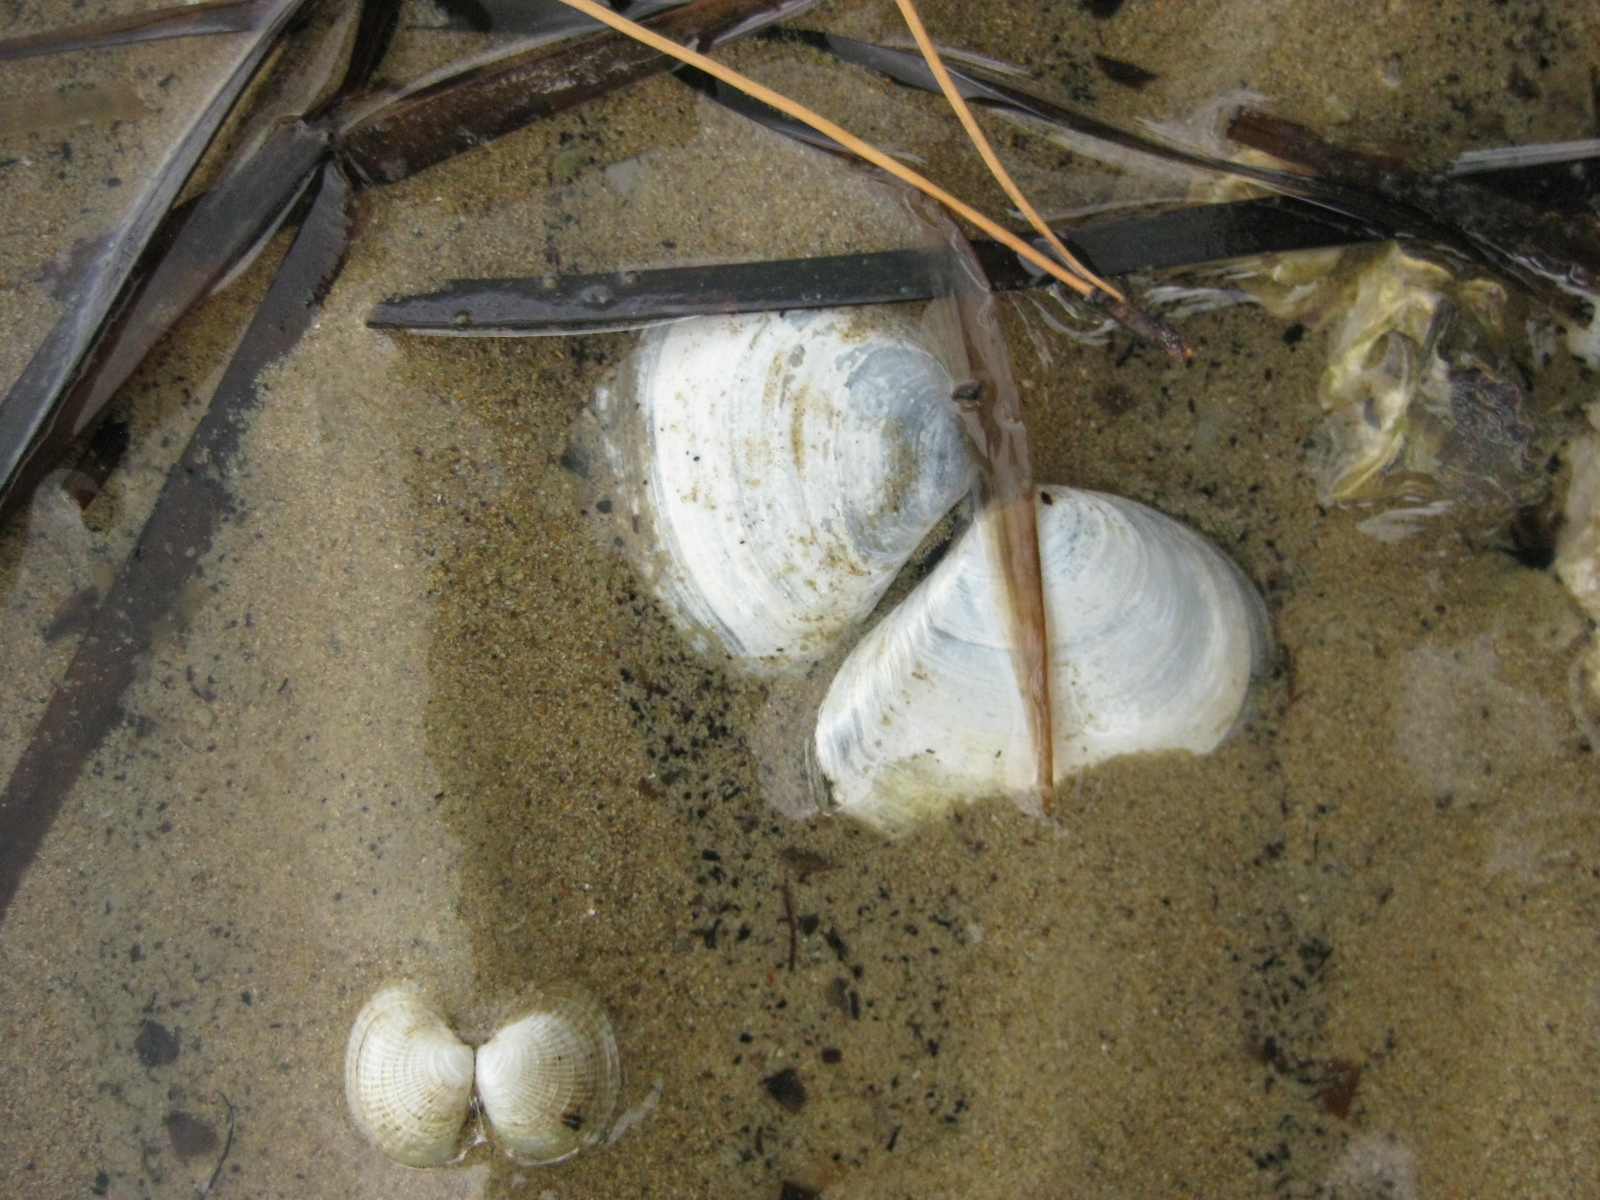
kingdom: Animalia
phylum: Mollusca
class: Bivalvia
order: Cardiida
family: Tellinidae
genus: Macomona
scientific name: Macomona liliana
